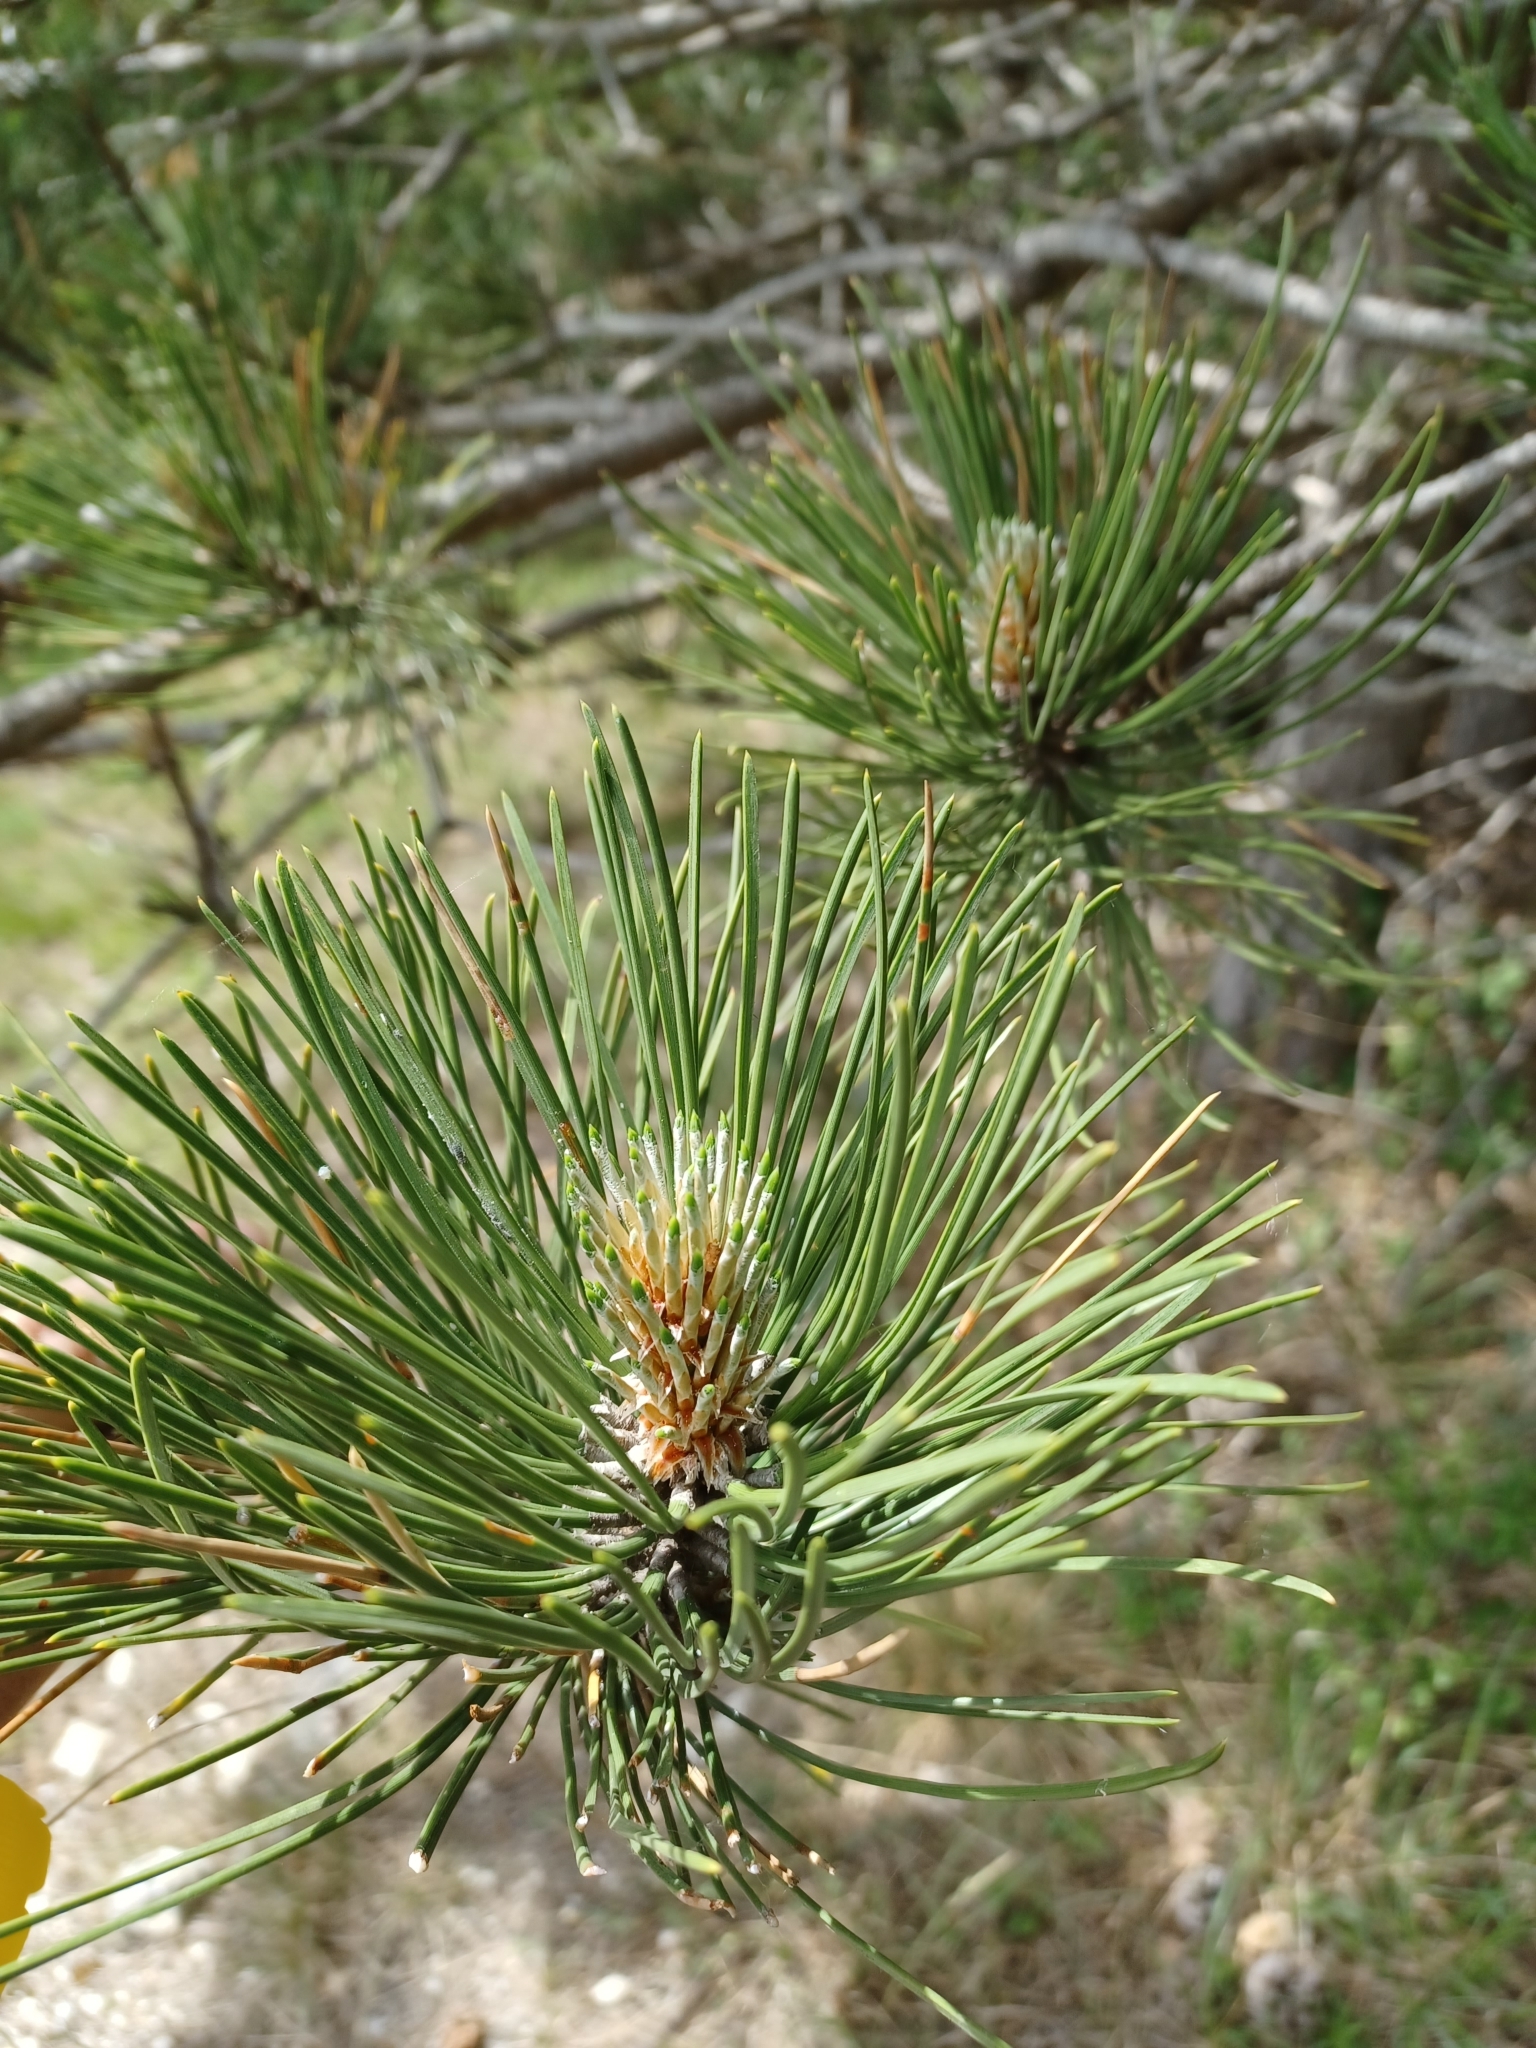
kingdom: Plantae
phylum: Tracheophyta
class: Pinopsida
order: Pinales
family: Pinaceae
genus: Pinus
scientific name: Pinus nigra
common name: Austrian pine
